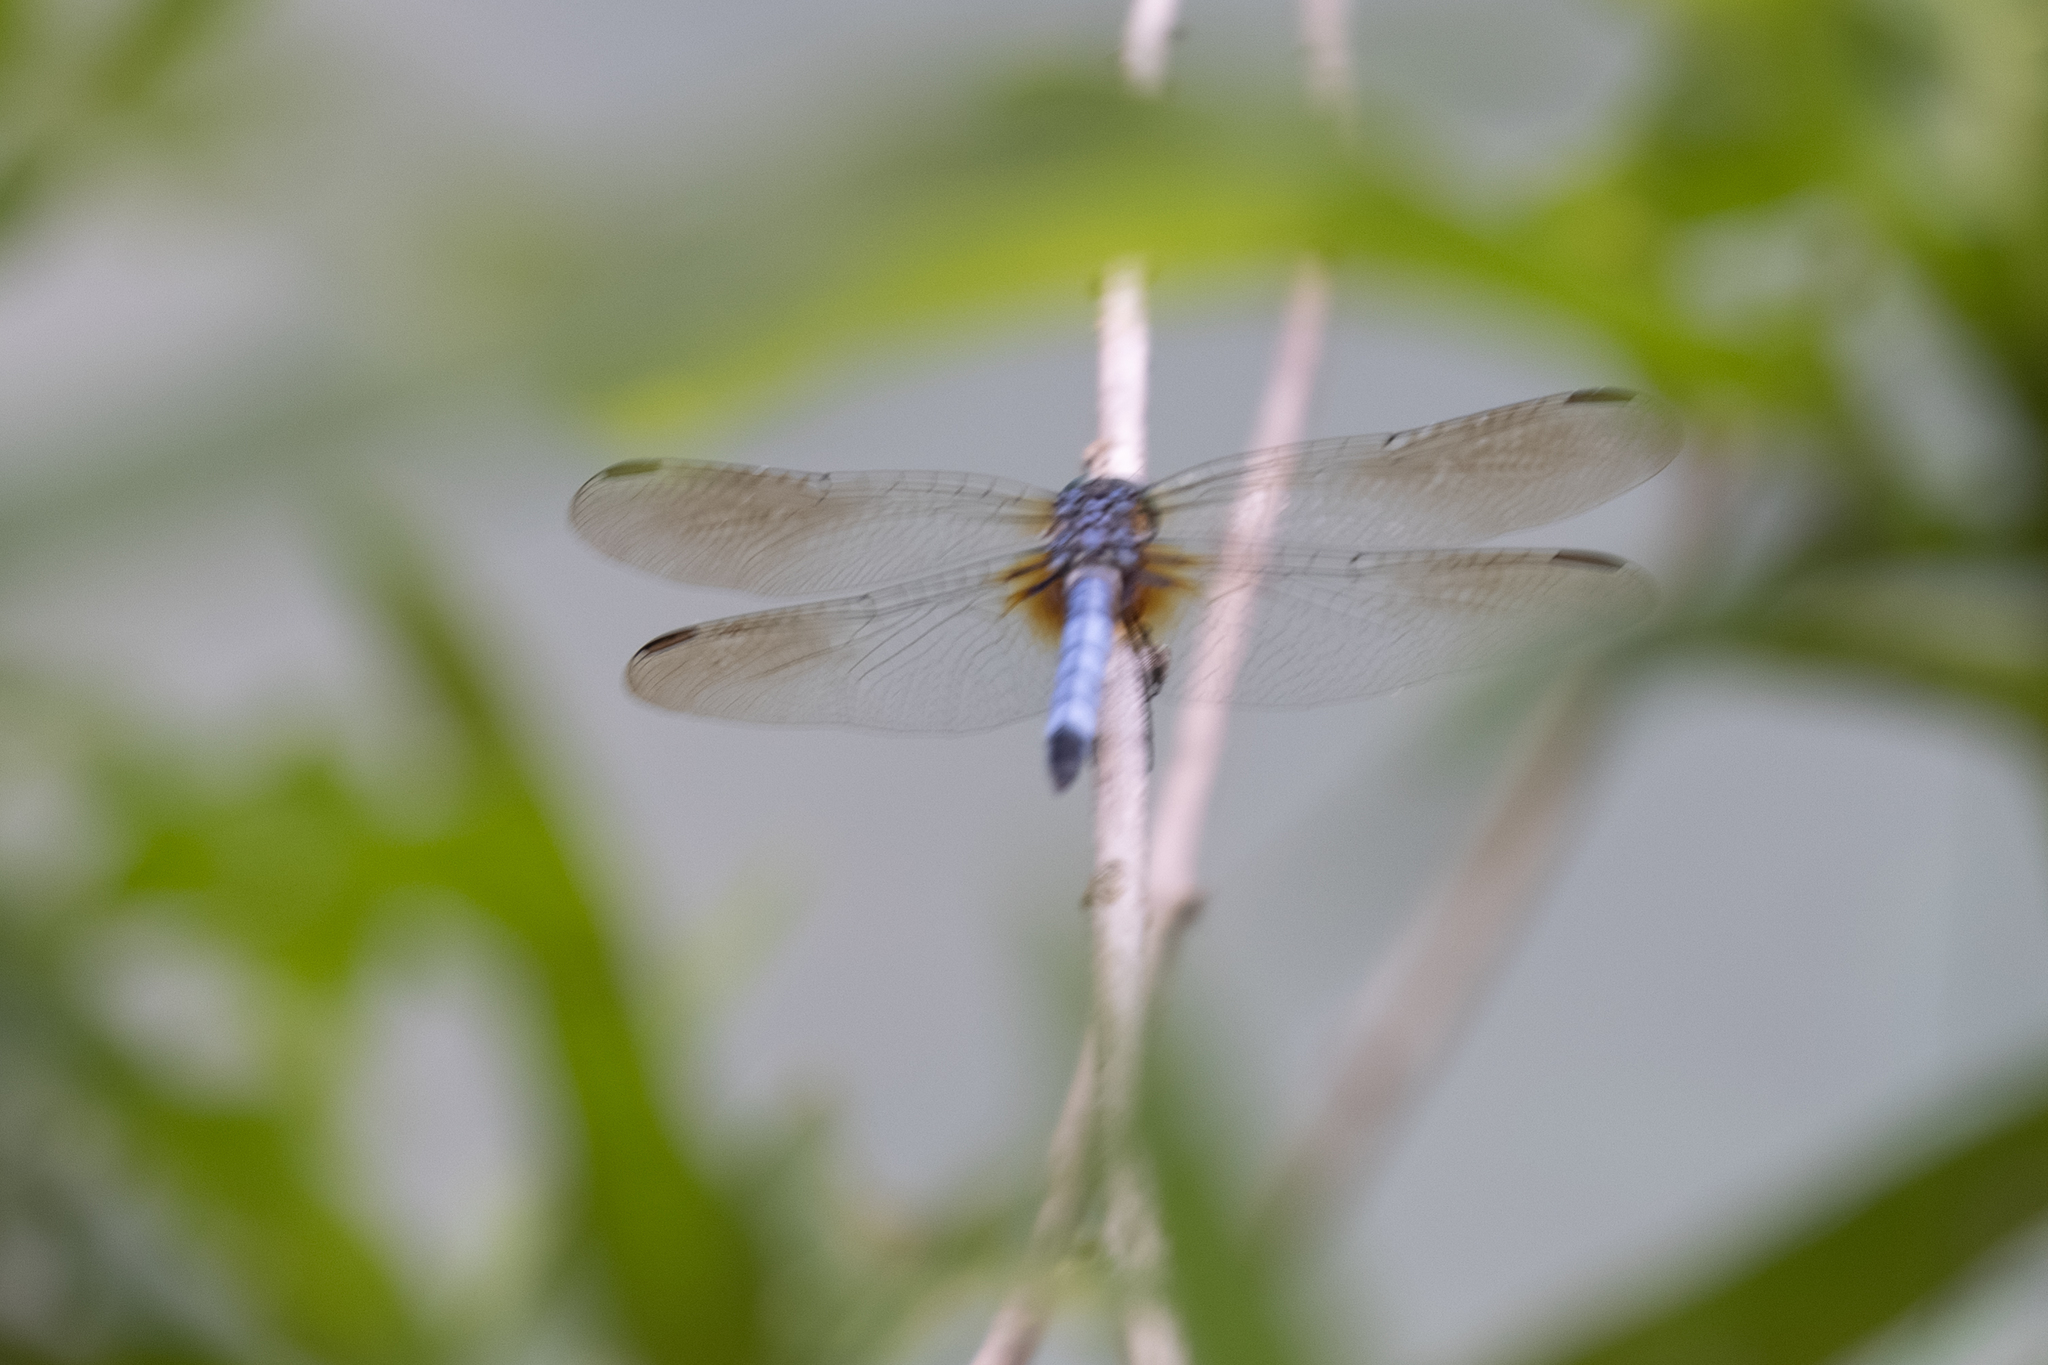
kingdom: Animalia
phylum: Arthropoda
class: Insecta
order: Odonata
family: Libellulidae
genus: Pachydiplax
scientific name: Pachydiplax longipennis
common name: Blue dasher
